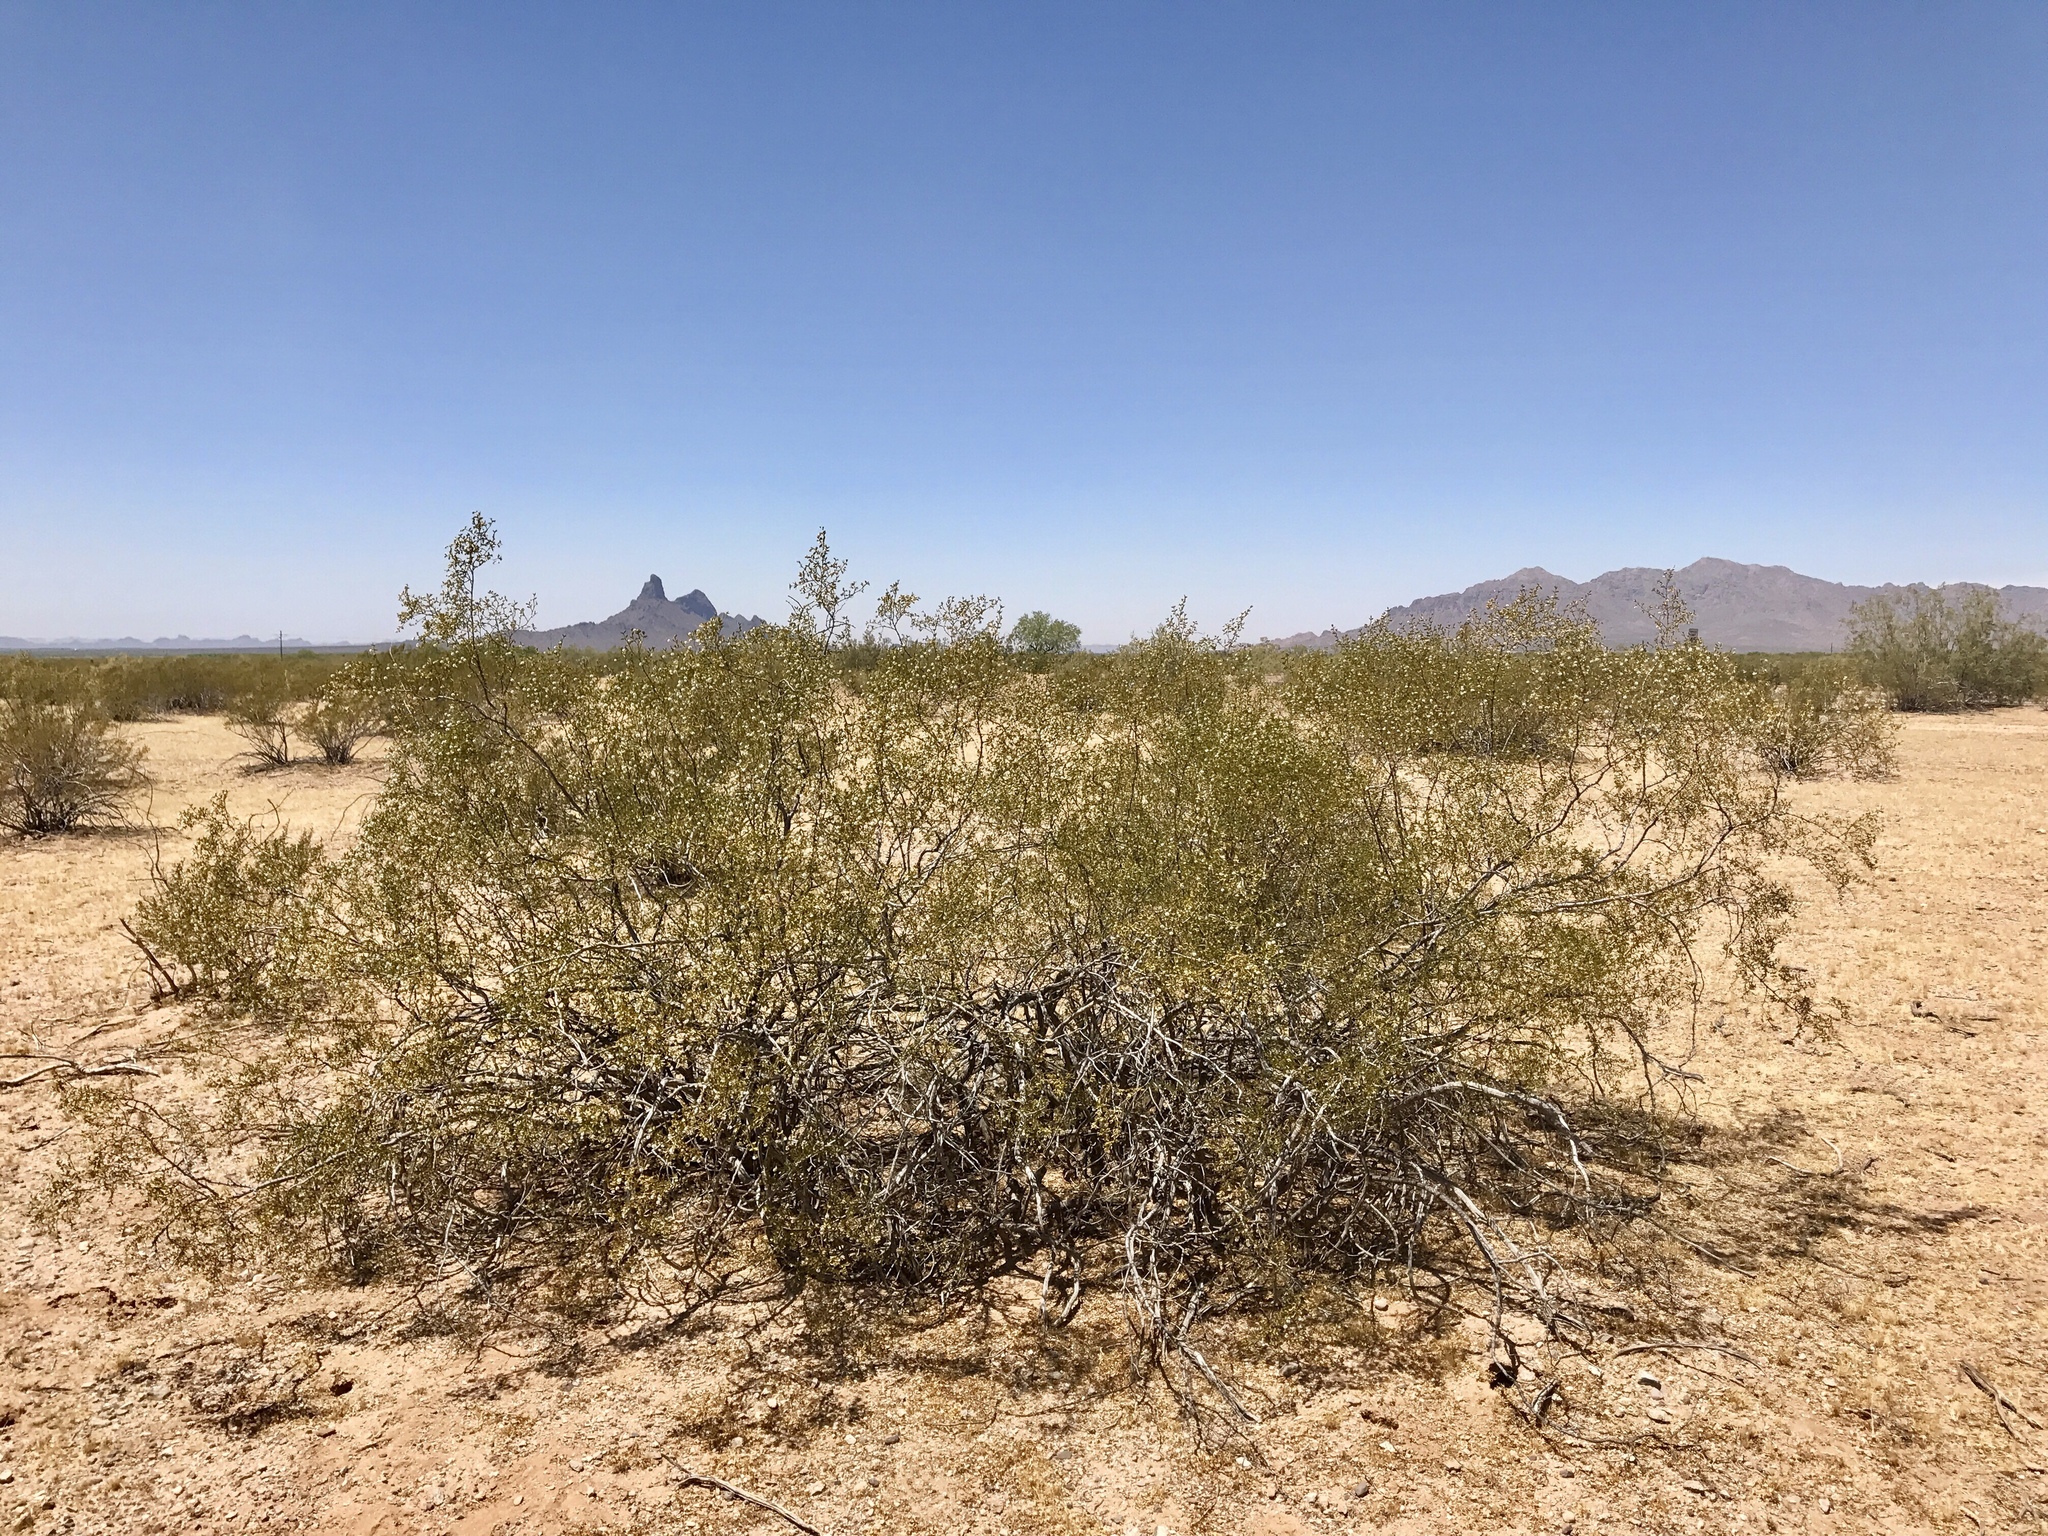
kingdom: Plantae
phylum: Tracheophyta
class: Magnoliopsida
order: Zygophyllales
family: Zygophyllaceae
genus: Larrea
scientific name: Larrea tridentata
